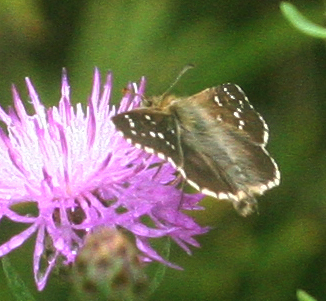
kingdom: Animalia
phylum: Arthropoda
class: Insecta
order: Lepidoptera
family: Hesperiidae
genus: Pyrgus
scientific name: Pyrgus
